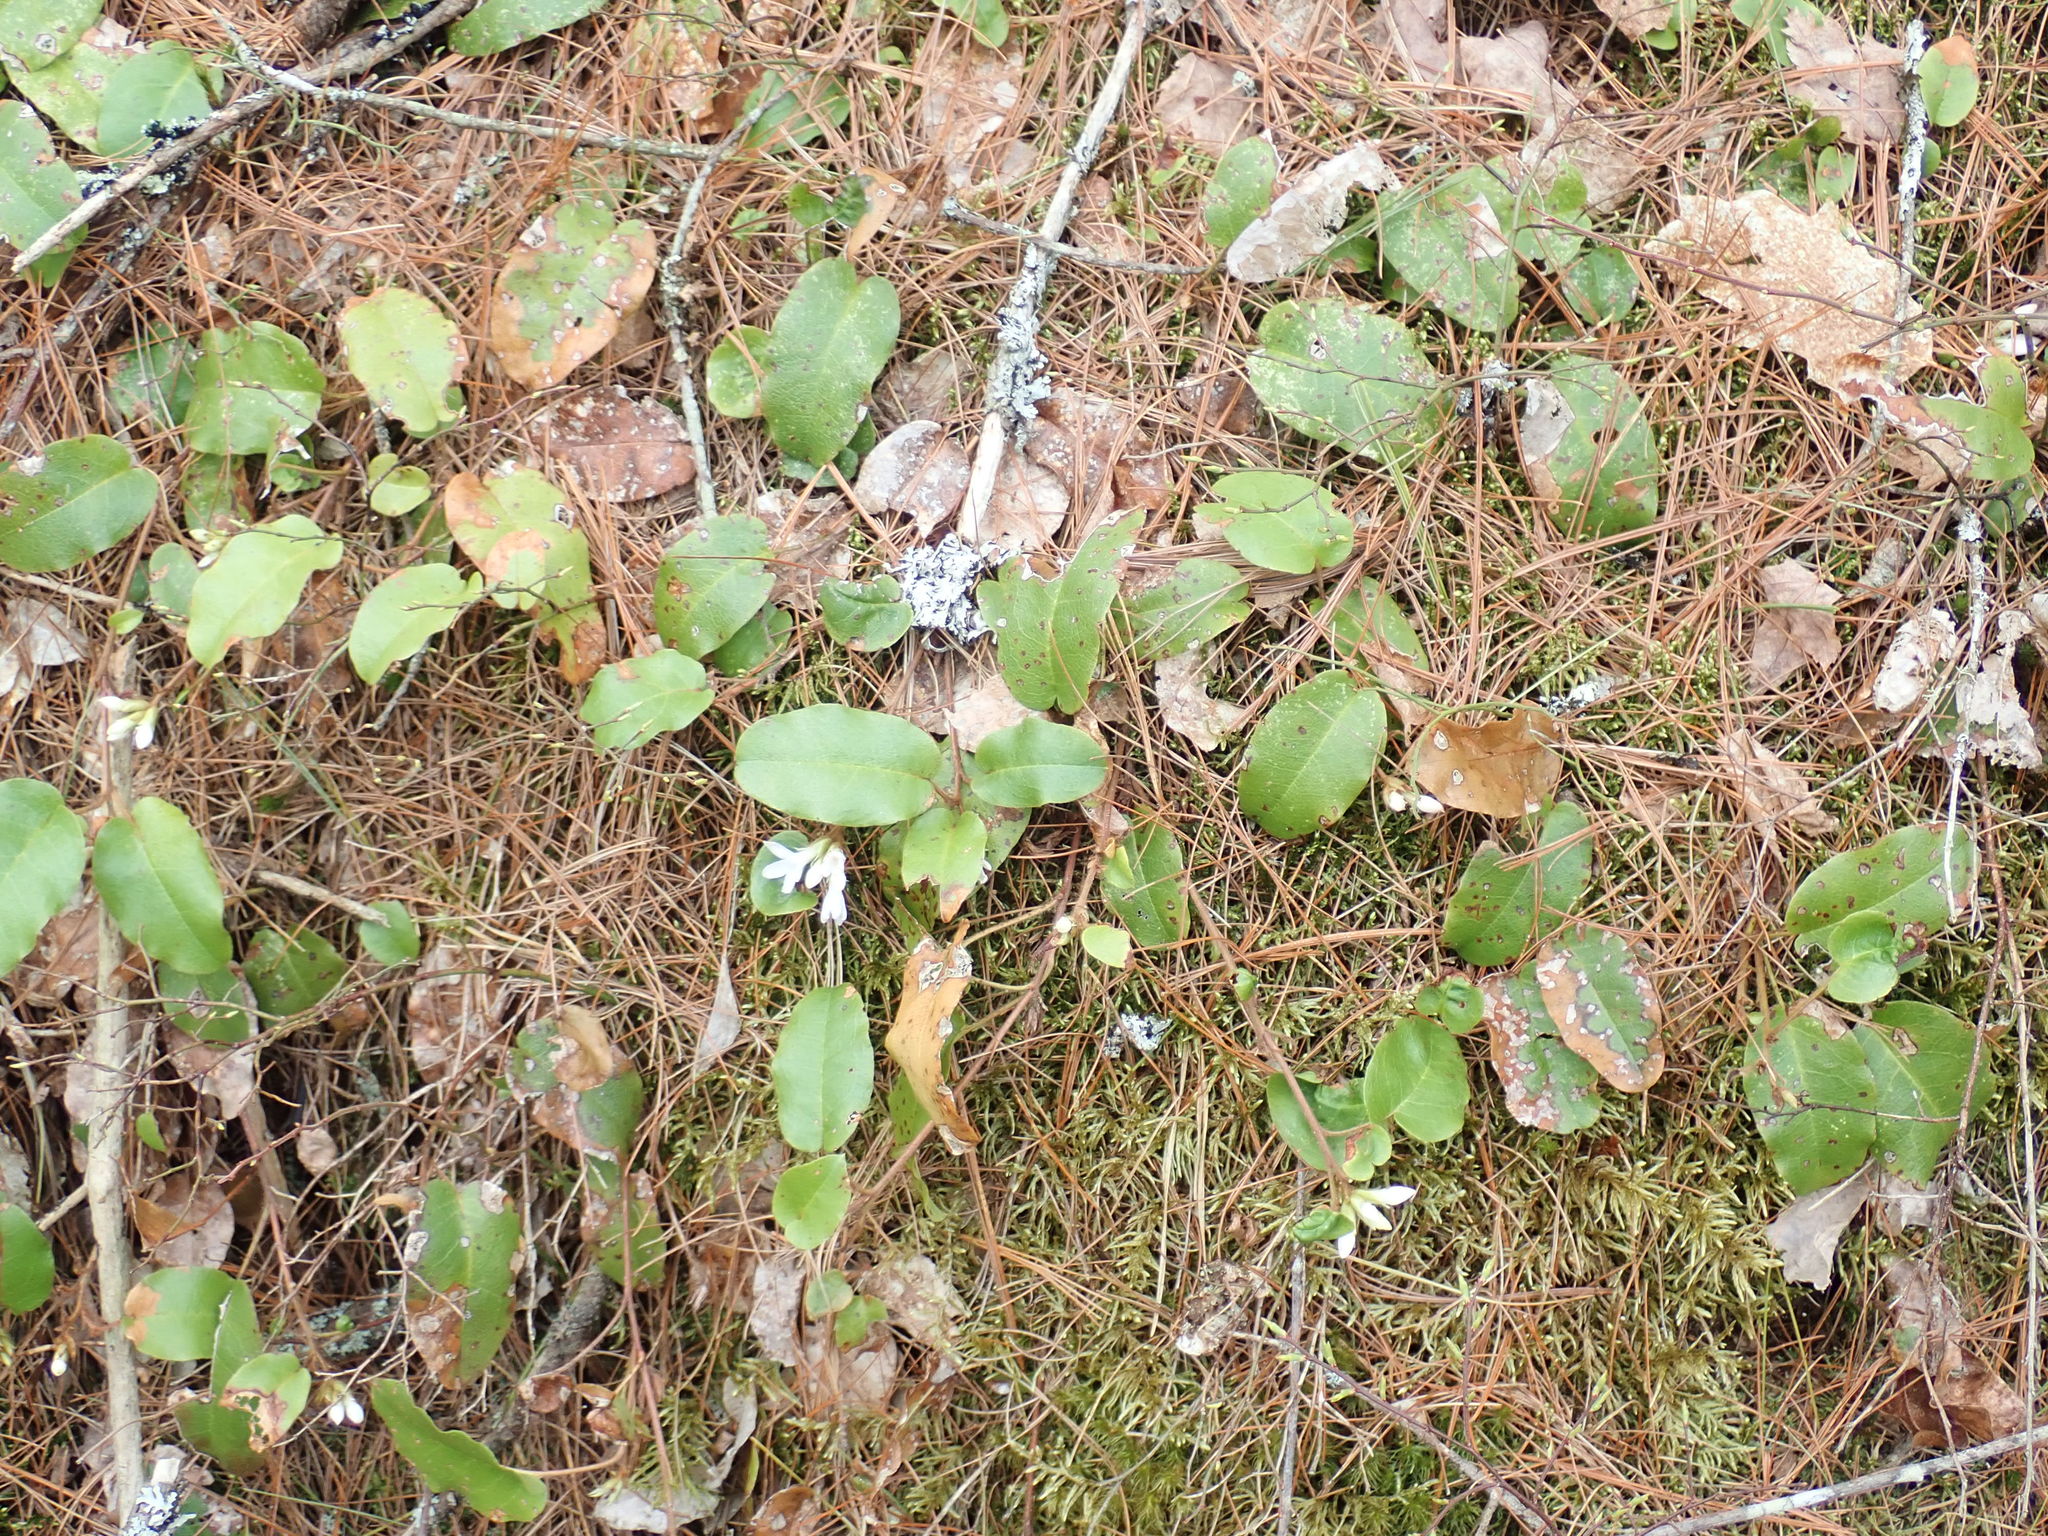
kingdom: Plantae
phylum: Tracheophyta
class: Magnoliopsida
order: Ericales
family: Ericaceae
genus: Epigaea
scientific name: Epigaea repens
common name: Gravelroot
